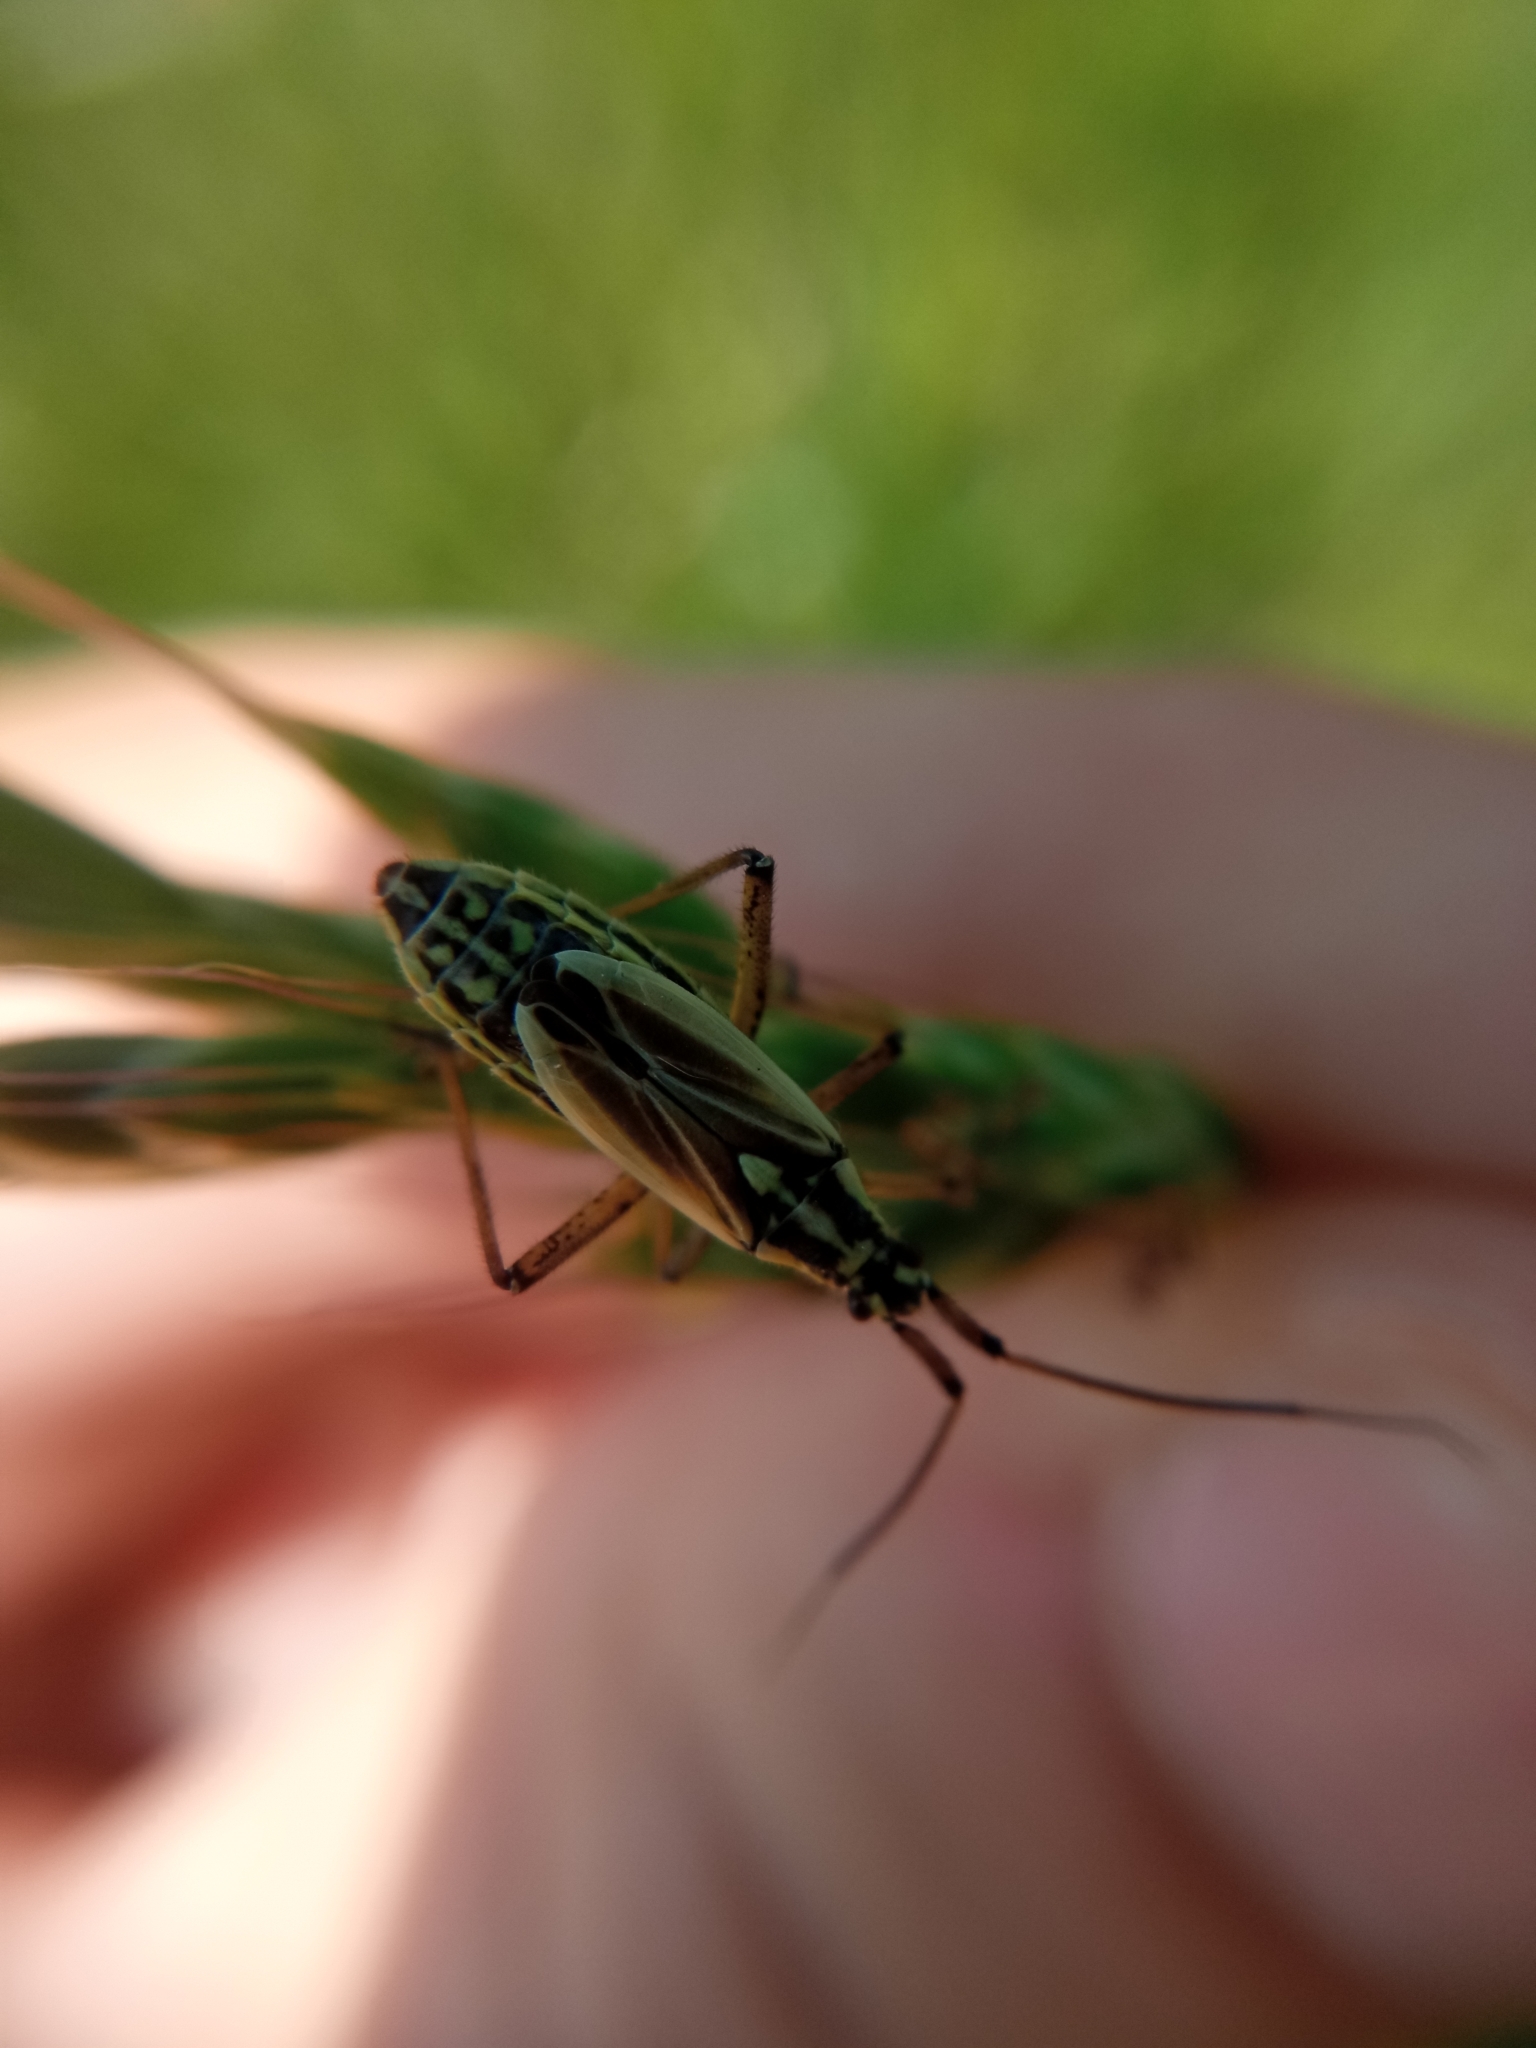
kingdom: Animalia
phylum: Arthropoda
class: Insecta
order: Hemiptera
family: Miridae
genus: Leptopterna
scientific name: Leptopterna dolabrata
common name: Meadow plant bug
